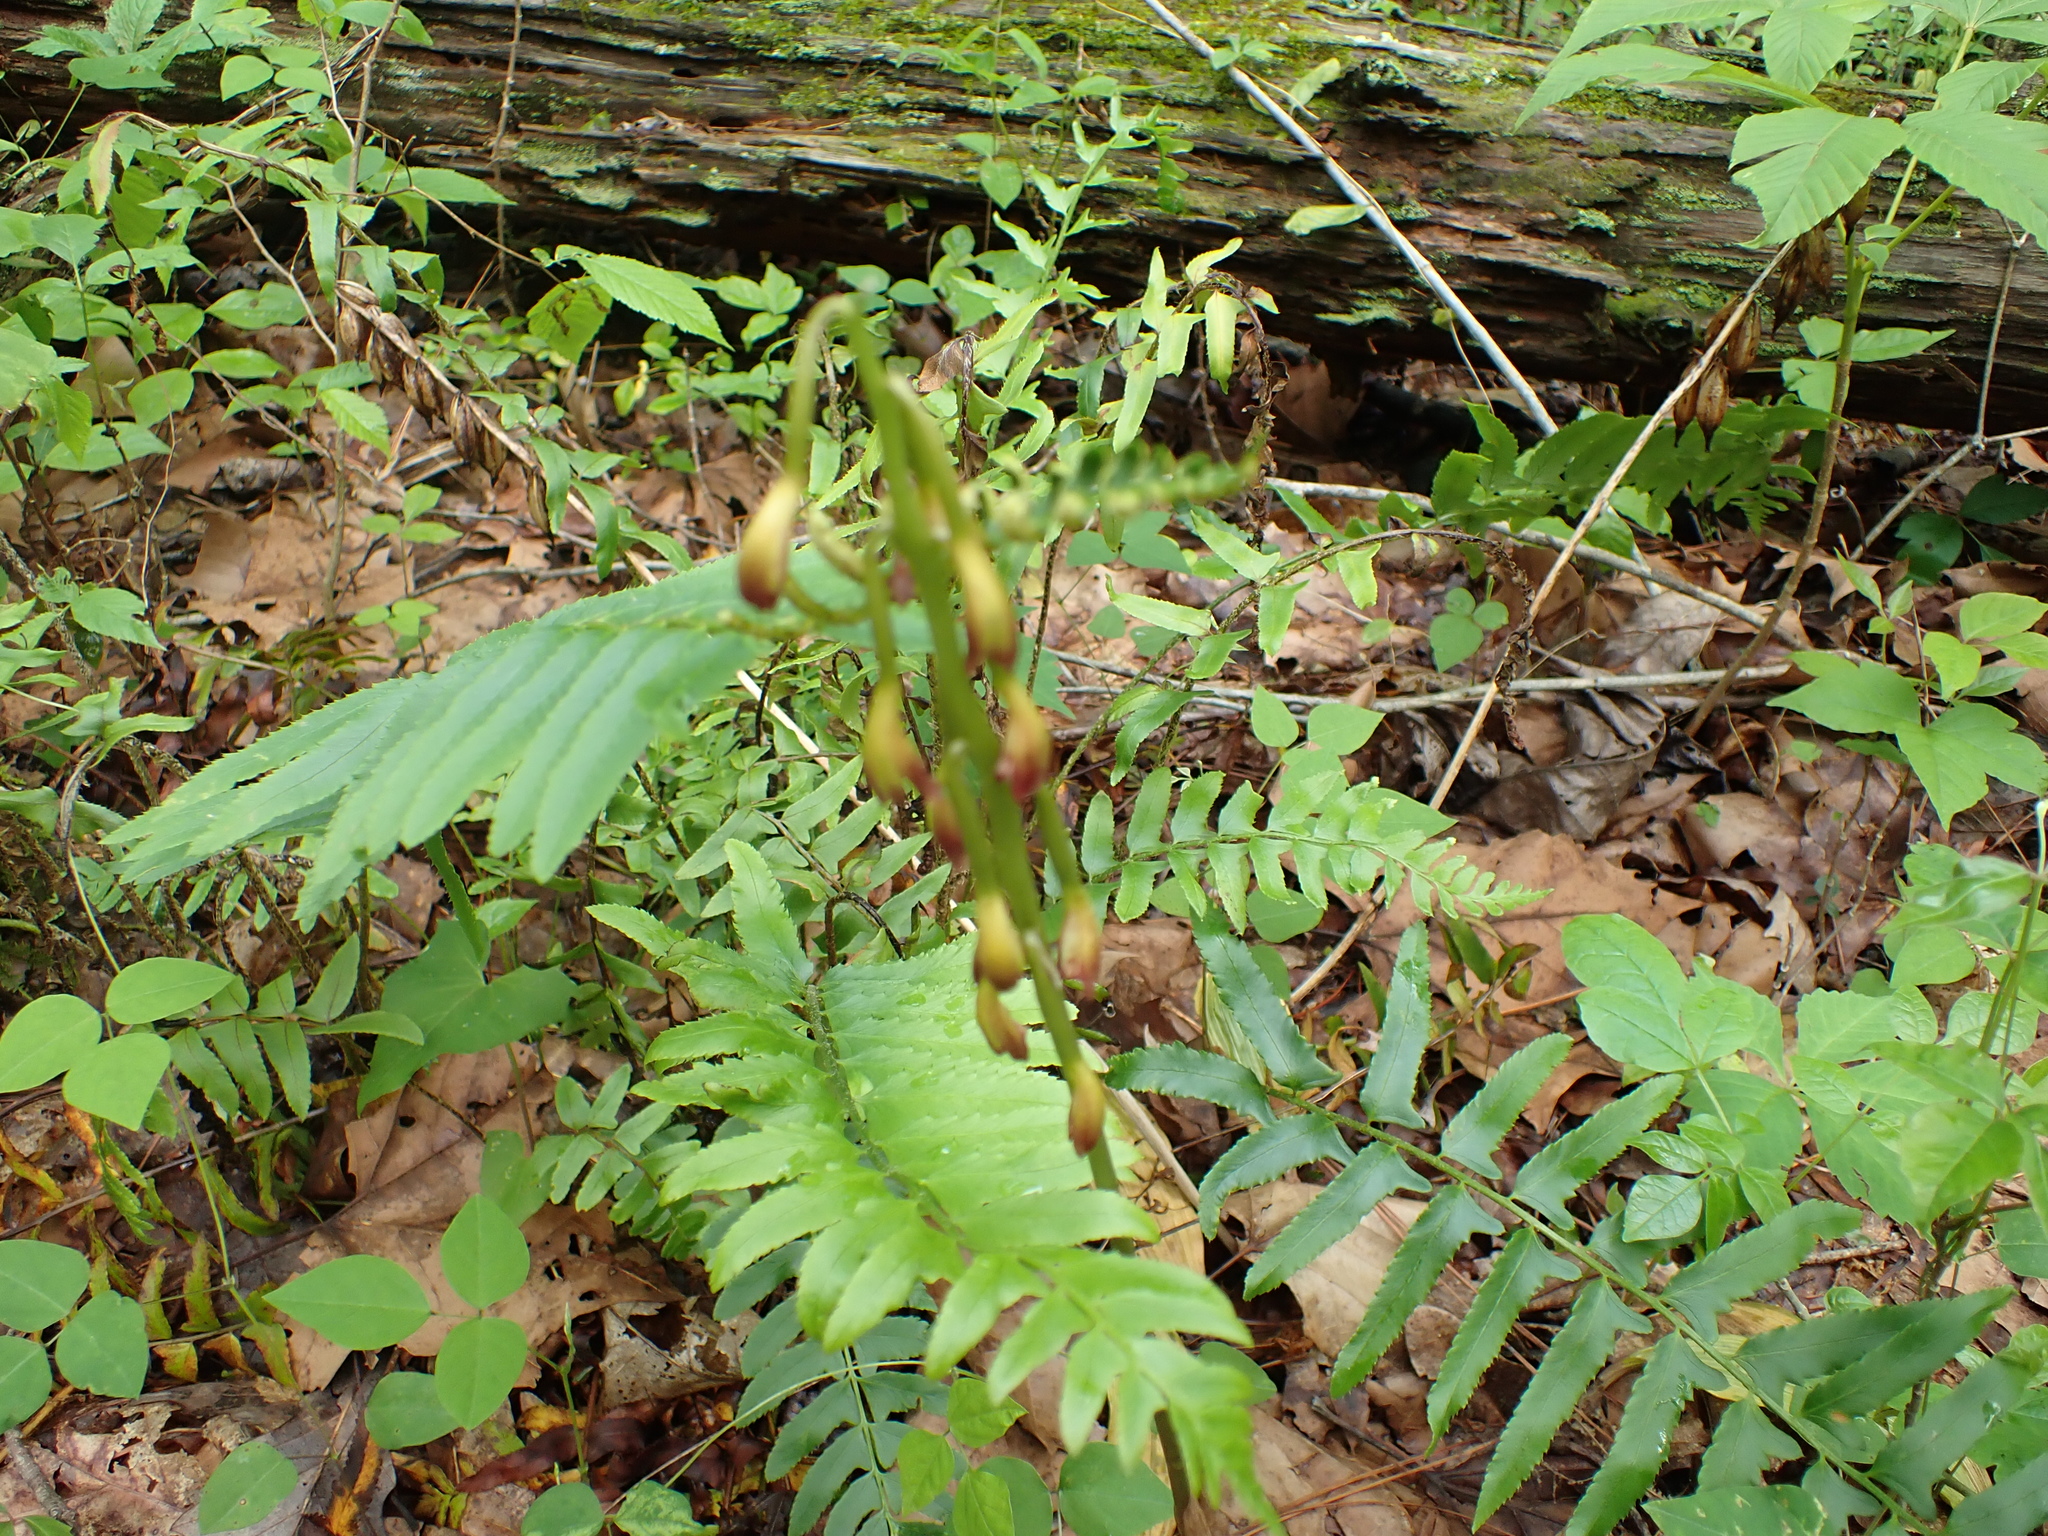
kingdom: Plantae
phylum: Tracheophyta
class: Liliopsida
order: Asparagales
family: Orchidaceae
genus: Aplectrum
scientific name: Aplectrum hyemale
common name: Adam-and-eve
